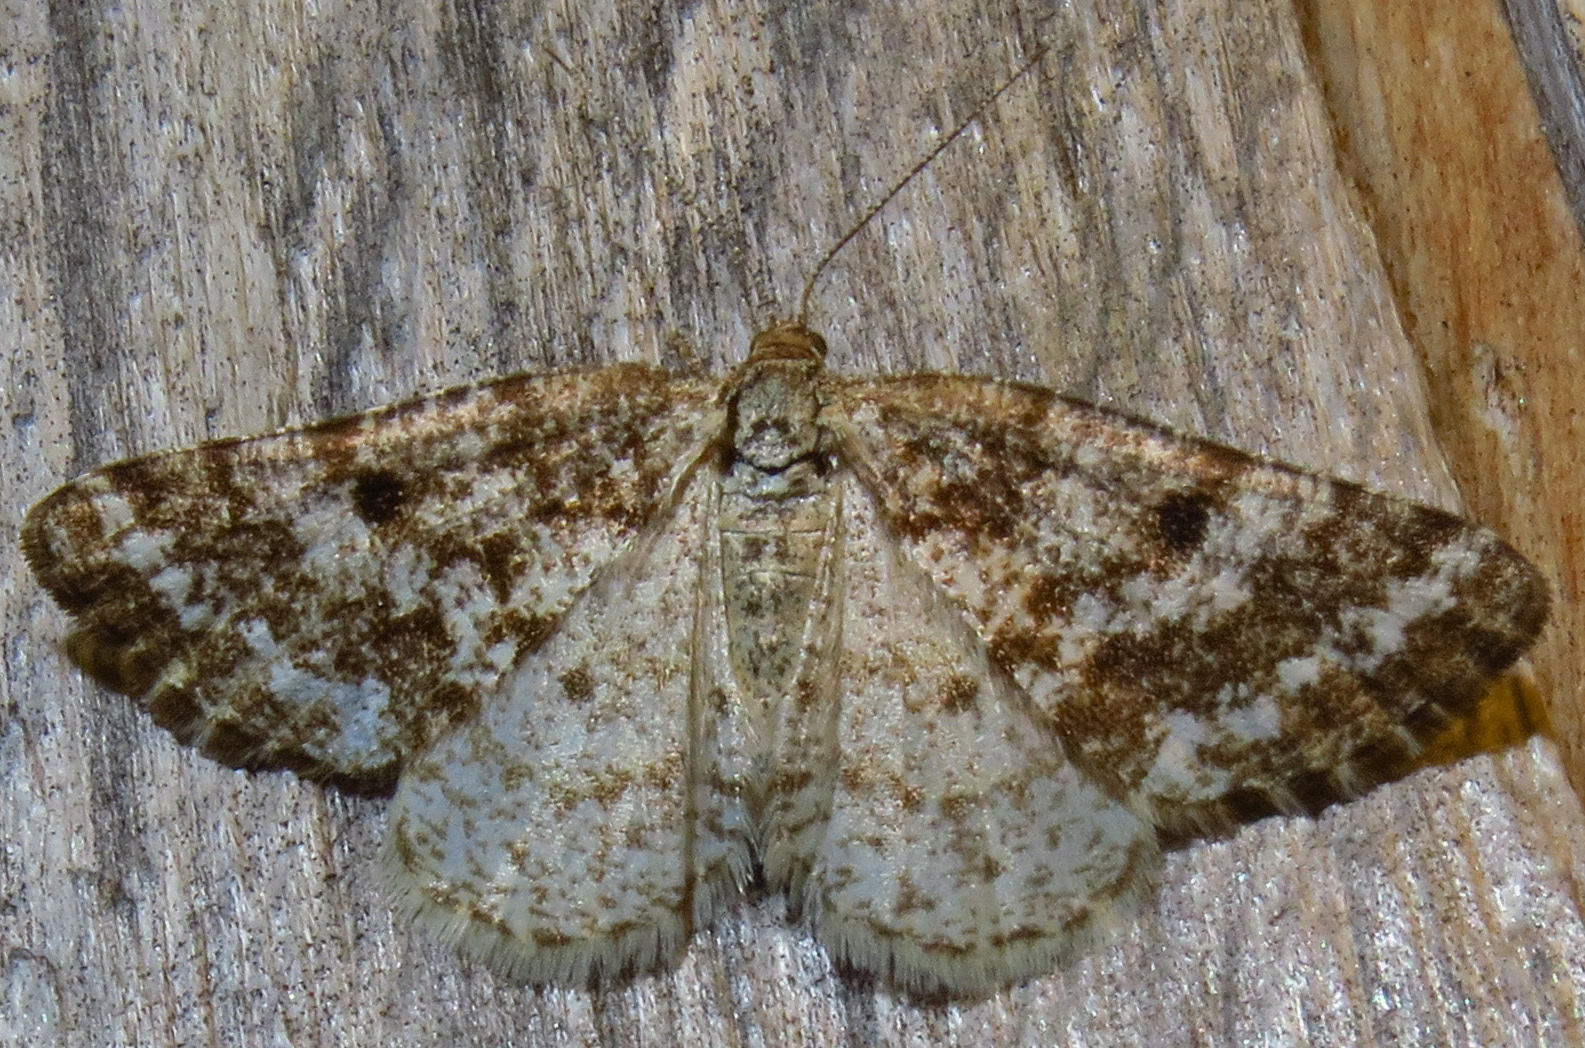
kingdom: Animalia
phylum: Arthropoda
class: Insecta
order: Lepidoptera
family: Geometridae
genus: Eufidonia
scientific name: Eufidonia notataria
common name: Powder moth
